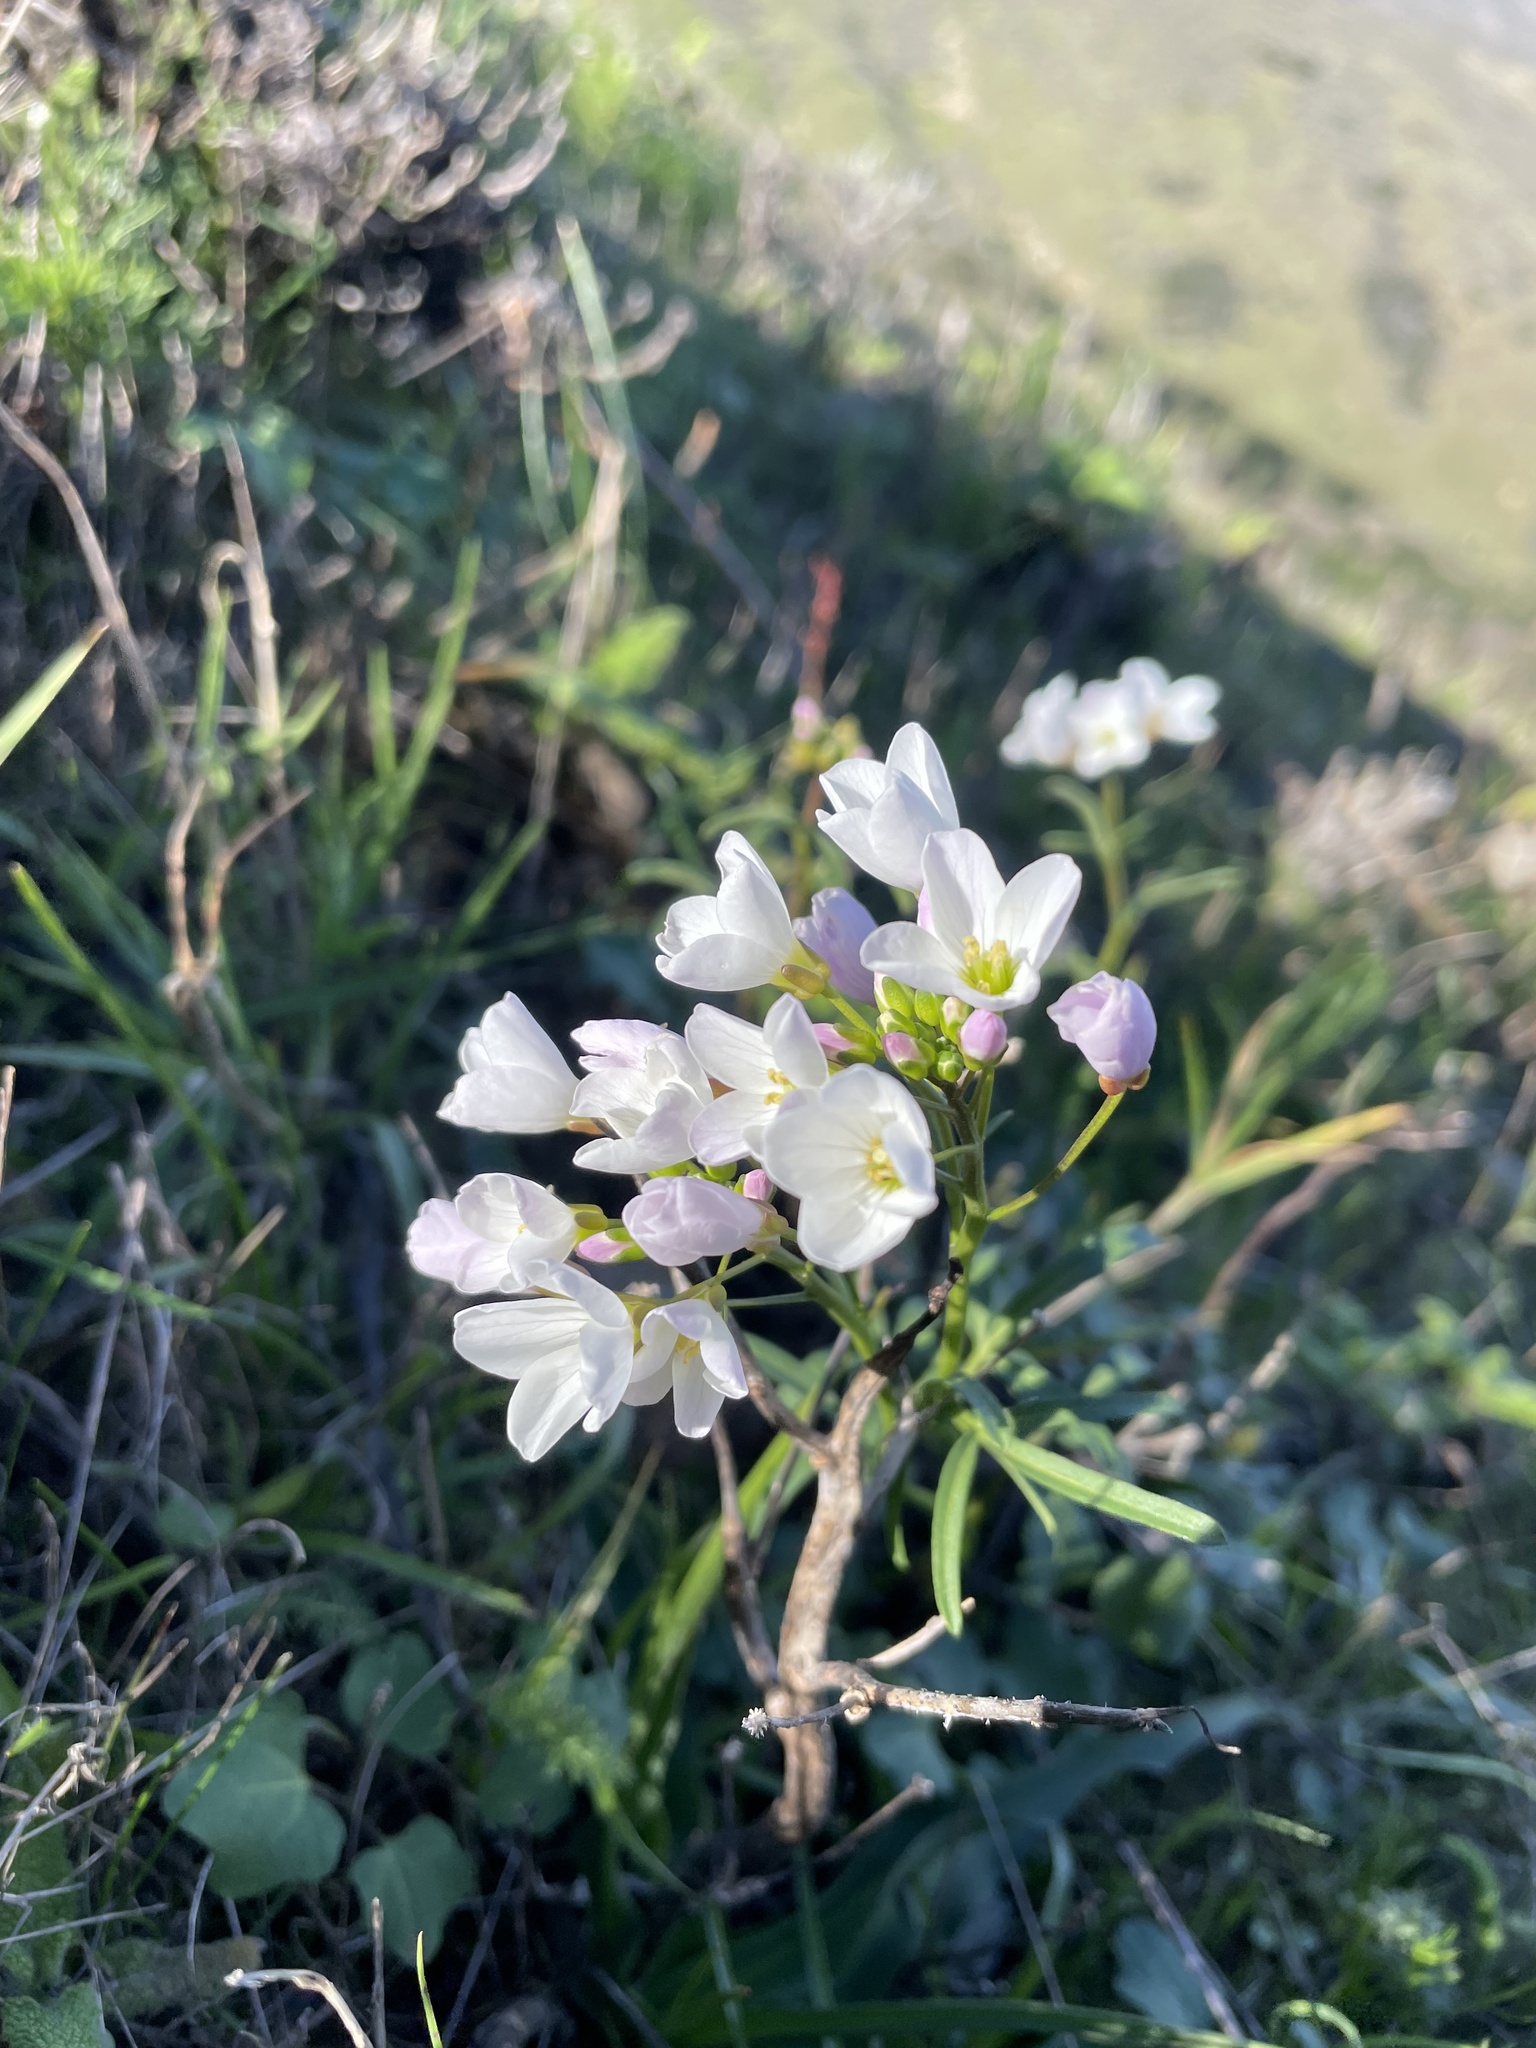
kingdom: Plantae
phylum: Tracheophyta
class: Magnoliopsida
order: Brassicales
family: Brassicaceae
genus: Cardamine
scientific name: Cardamine californica
